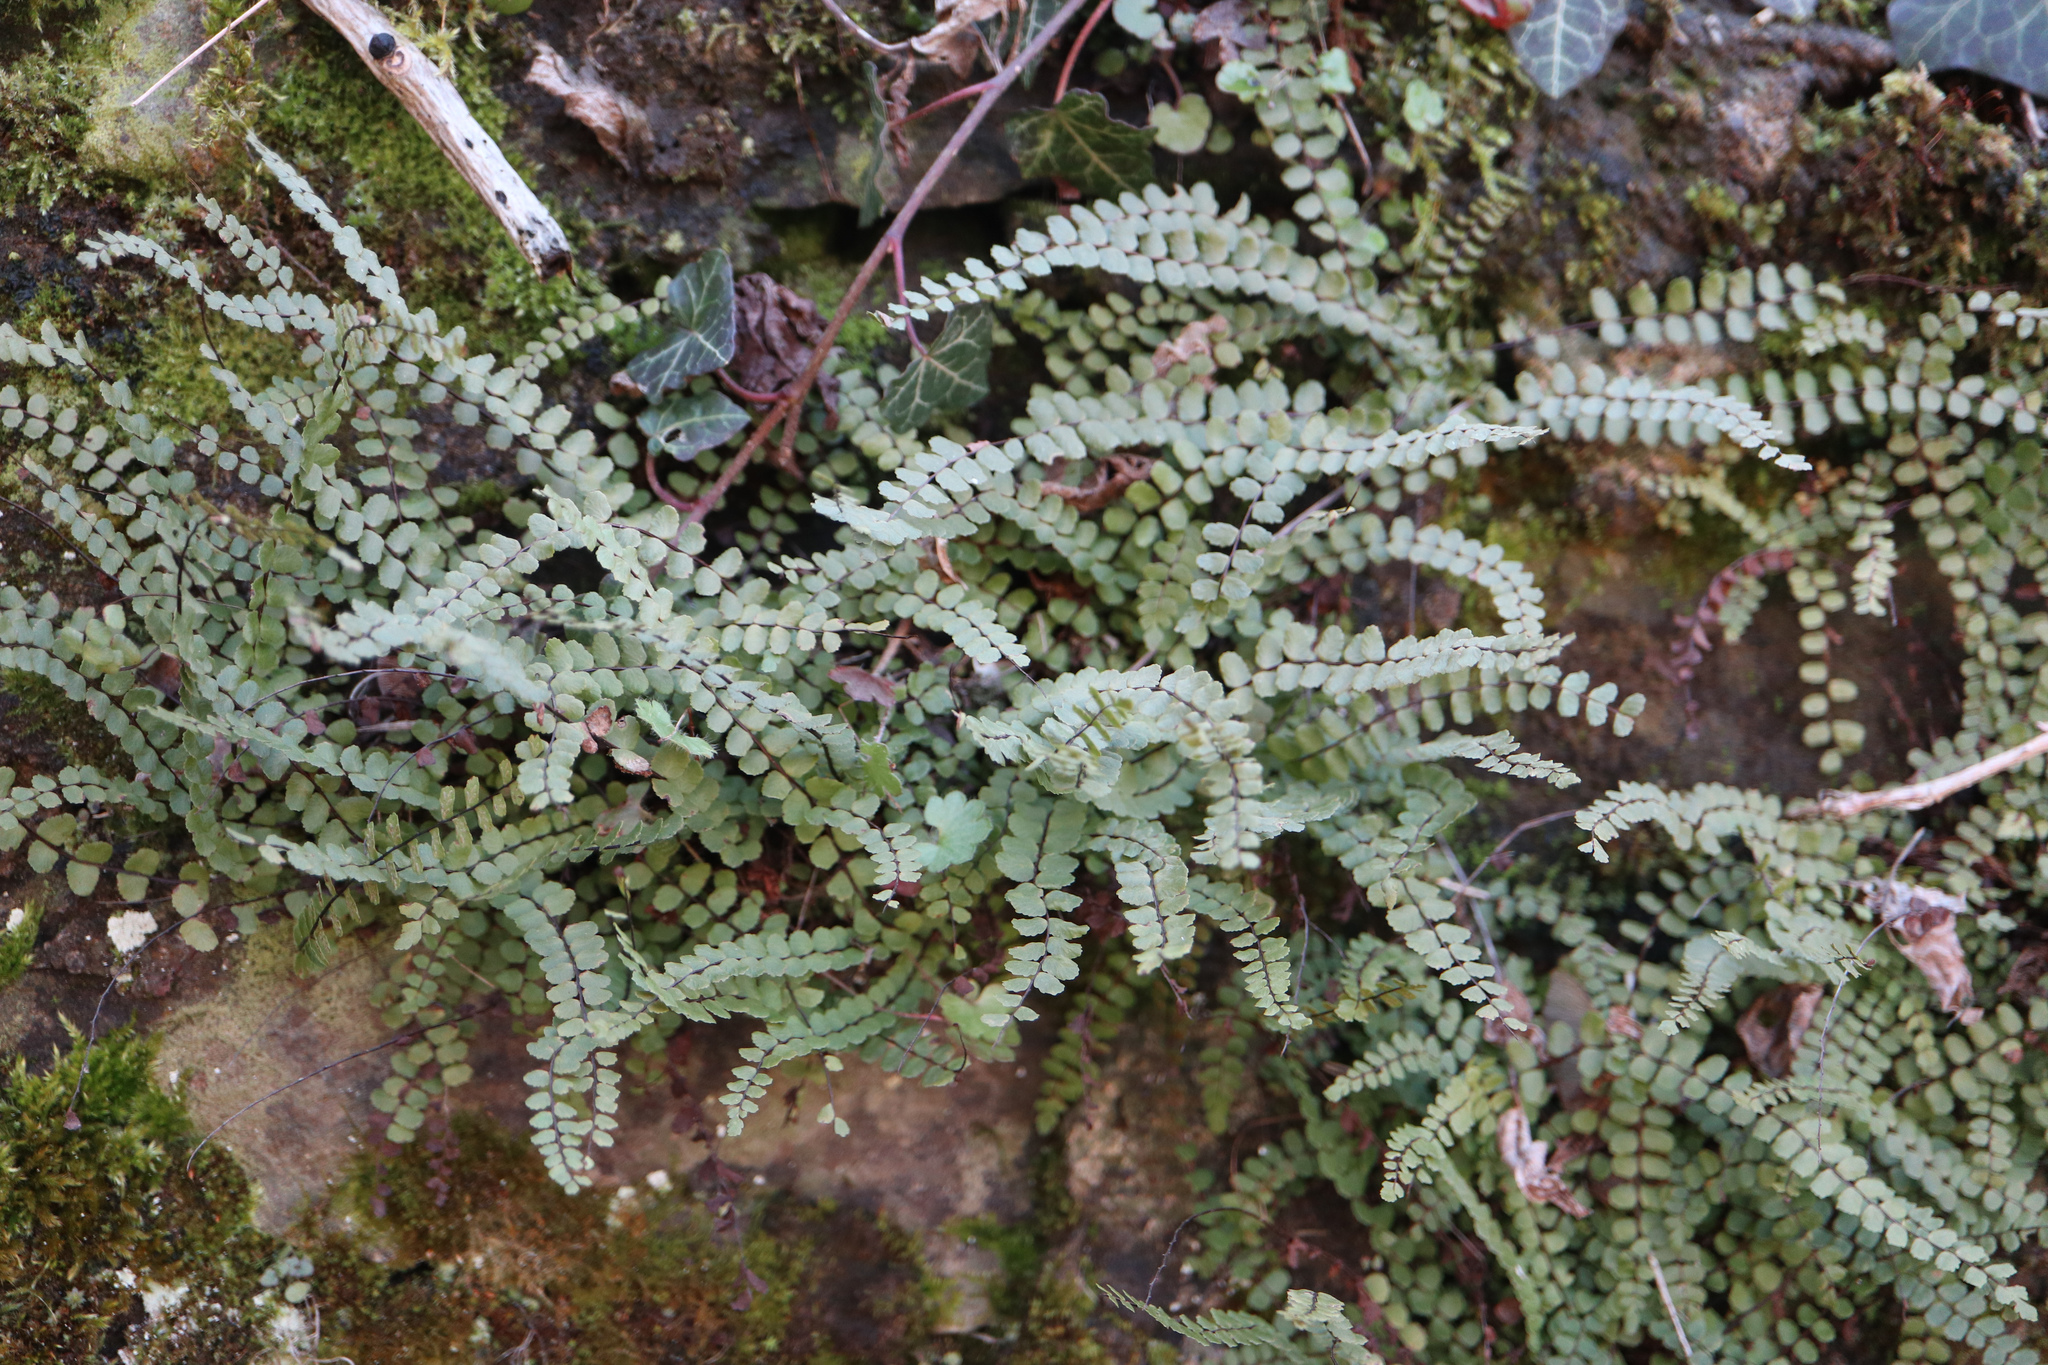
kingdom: Plantae
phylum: Tracheophyta
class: Polypodiopsida
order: Polypodiales
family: Aspleniaceae
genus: Asplenium
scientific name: Asplenium trichomanes
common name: Maidenhair spleenwort
